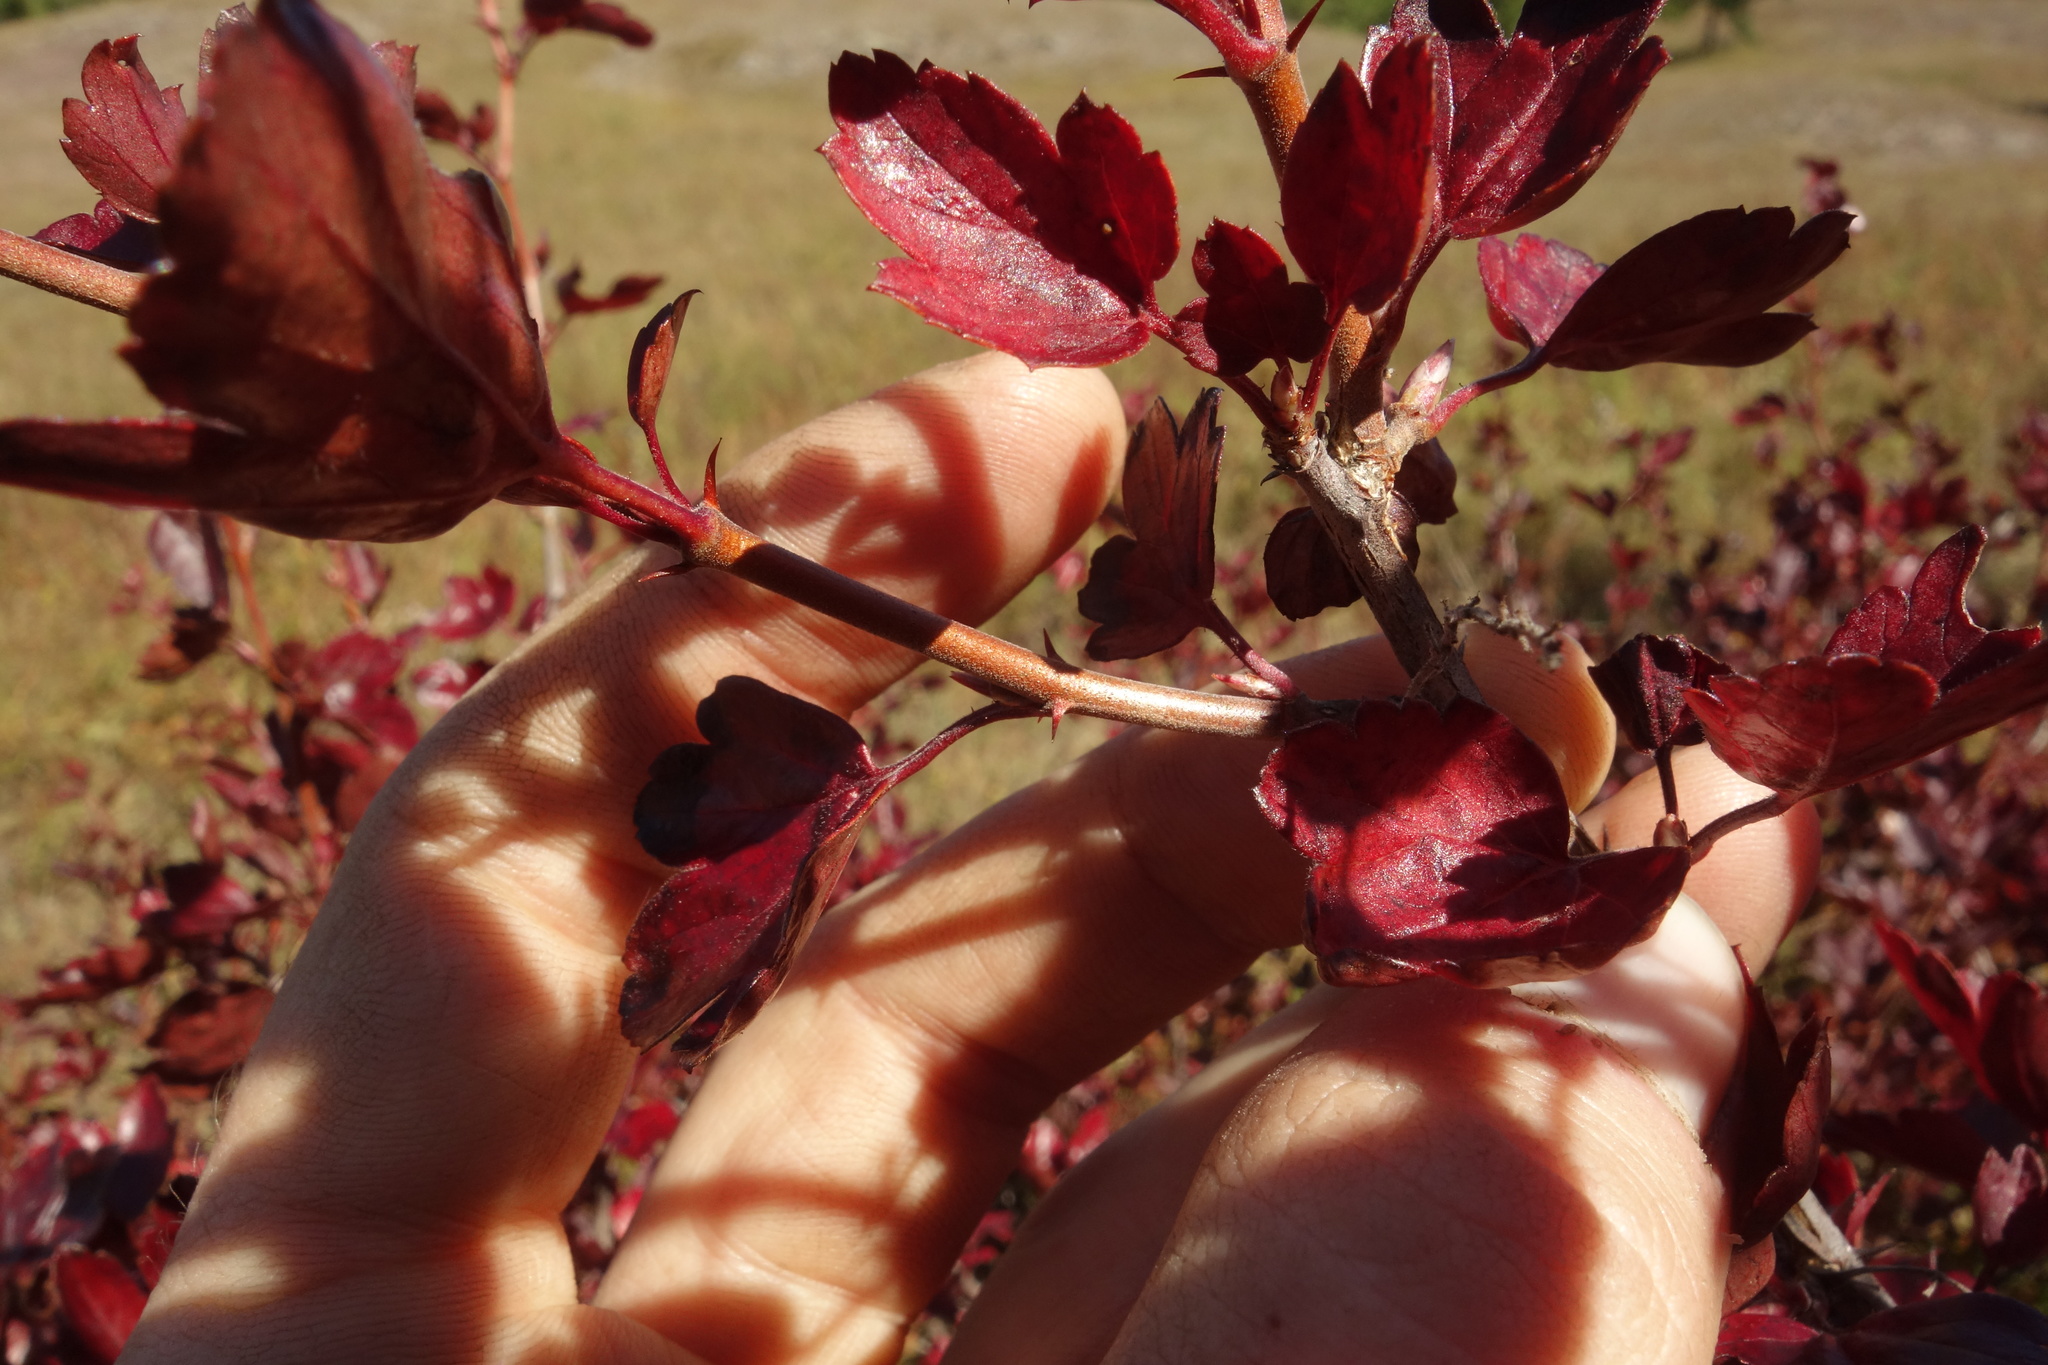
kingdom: Plantae
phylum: Tracheophyta
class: Magnoliopsida
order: Saxifragales
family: Grossulariaceae
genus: Ribes
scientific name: Ribes diacanthum
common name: Siberian currant
